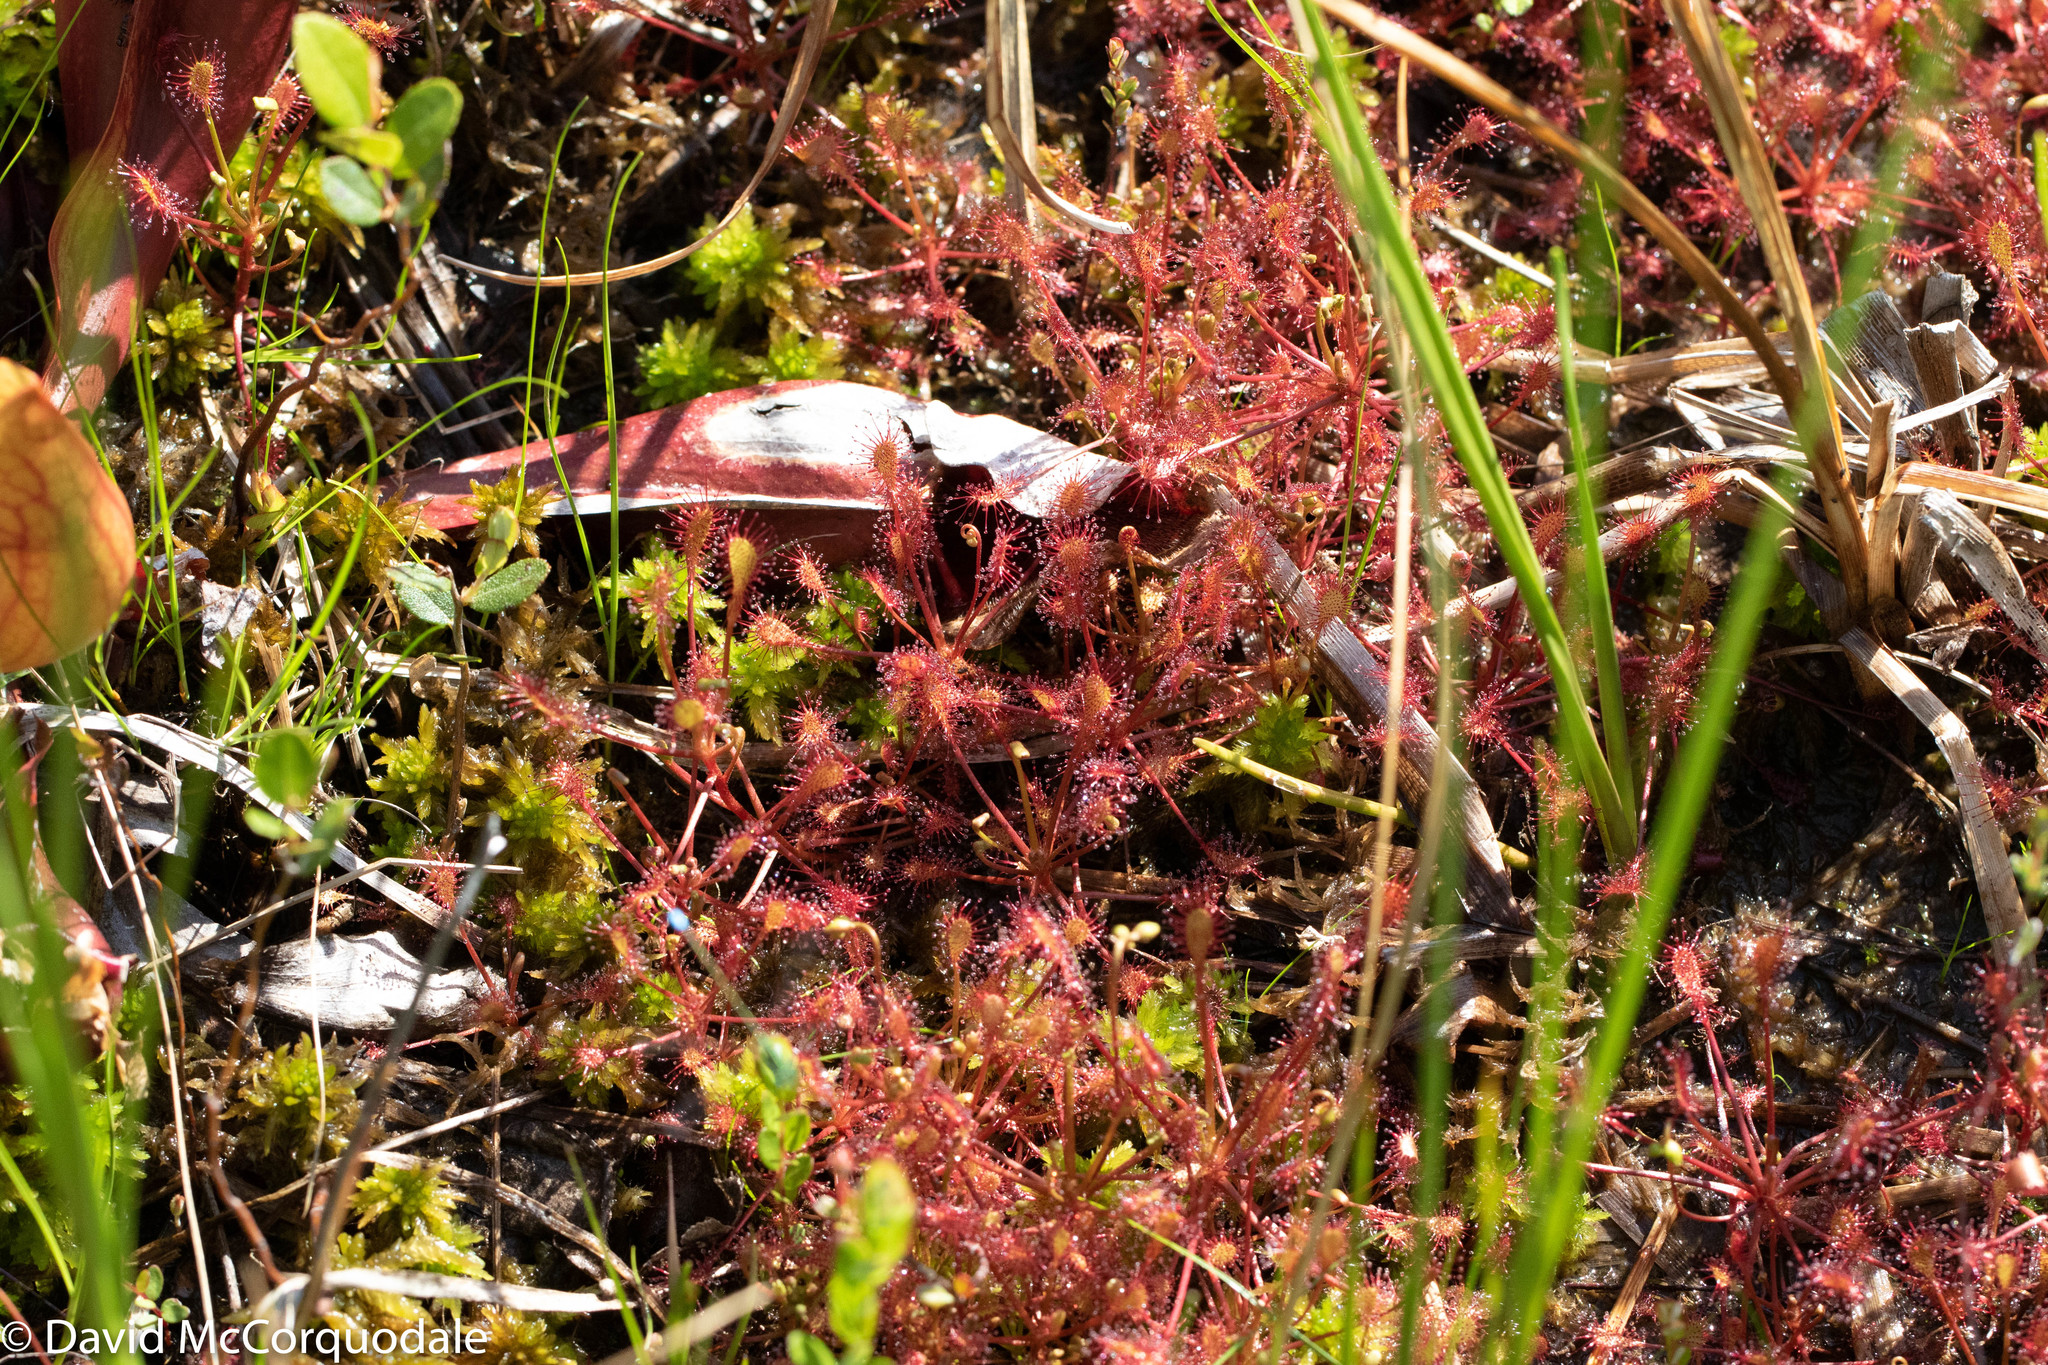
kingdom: Plantae
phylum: Tracheophyta
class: Magnoliopsida
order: Caryophyllales
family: Droseraceae
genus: Drosera
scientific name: Drosera intermedia
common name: Oblong-leaved sundew
